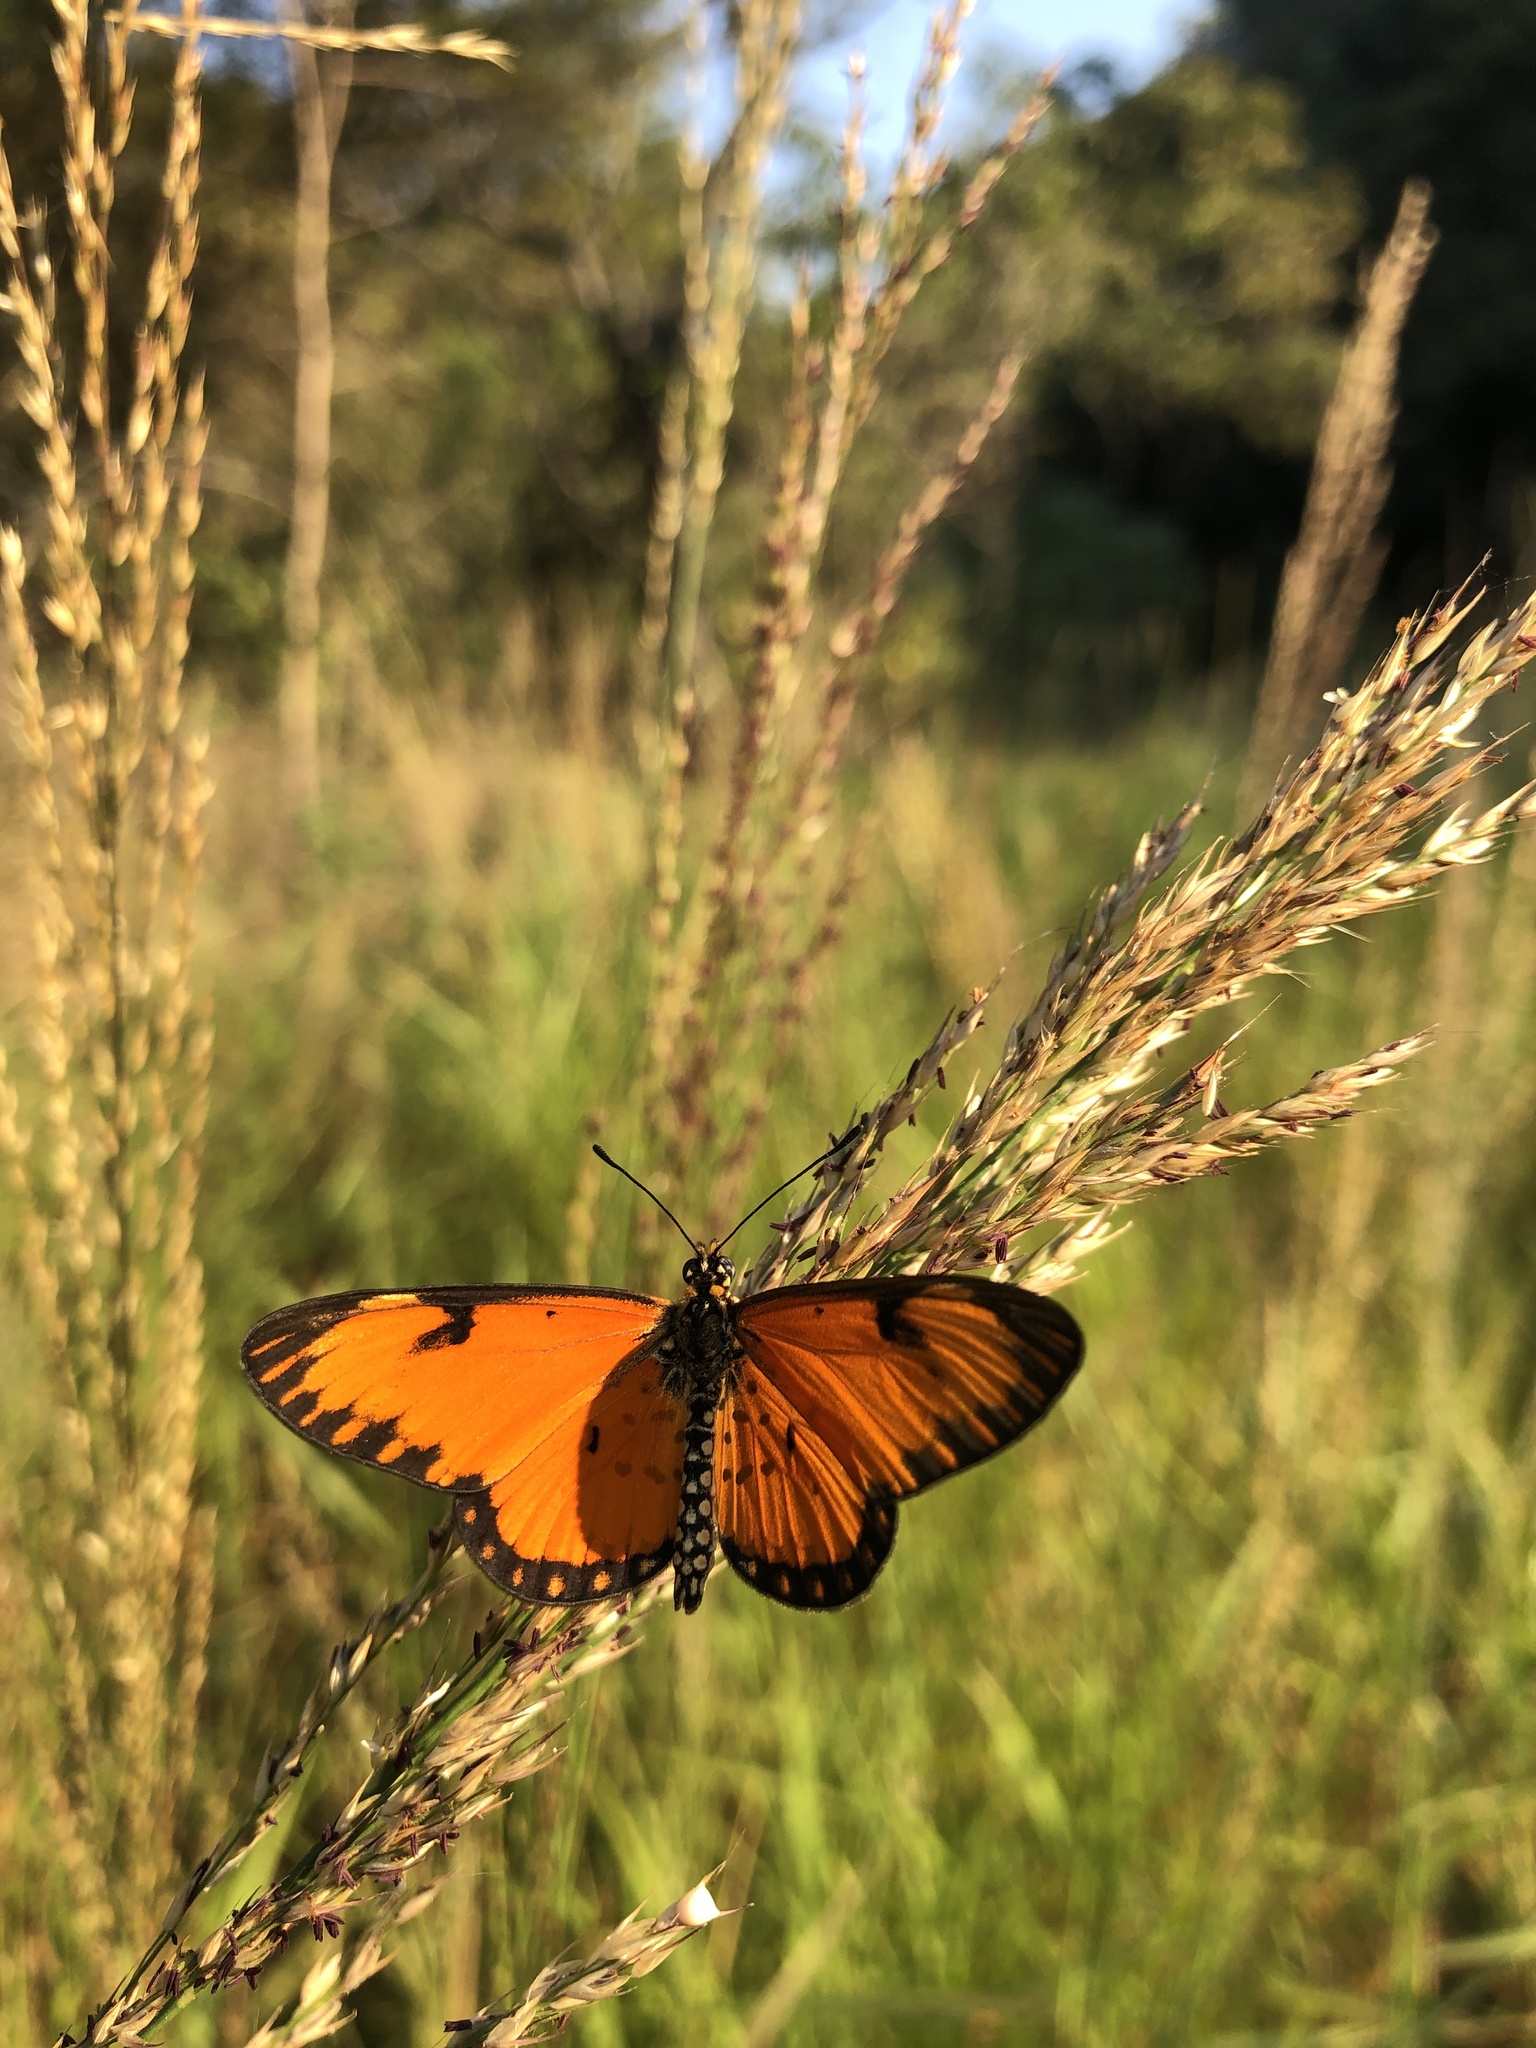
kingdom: Animalia
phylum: Arthropoda
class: Insecta
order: Lepidoptera
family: Nymphalidae
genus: Acraea
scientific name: Acraea Telchinia serena
